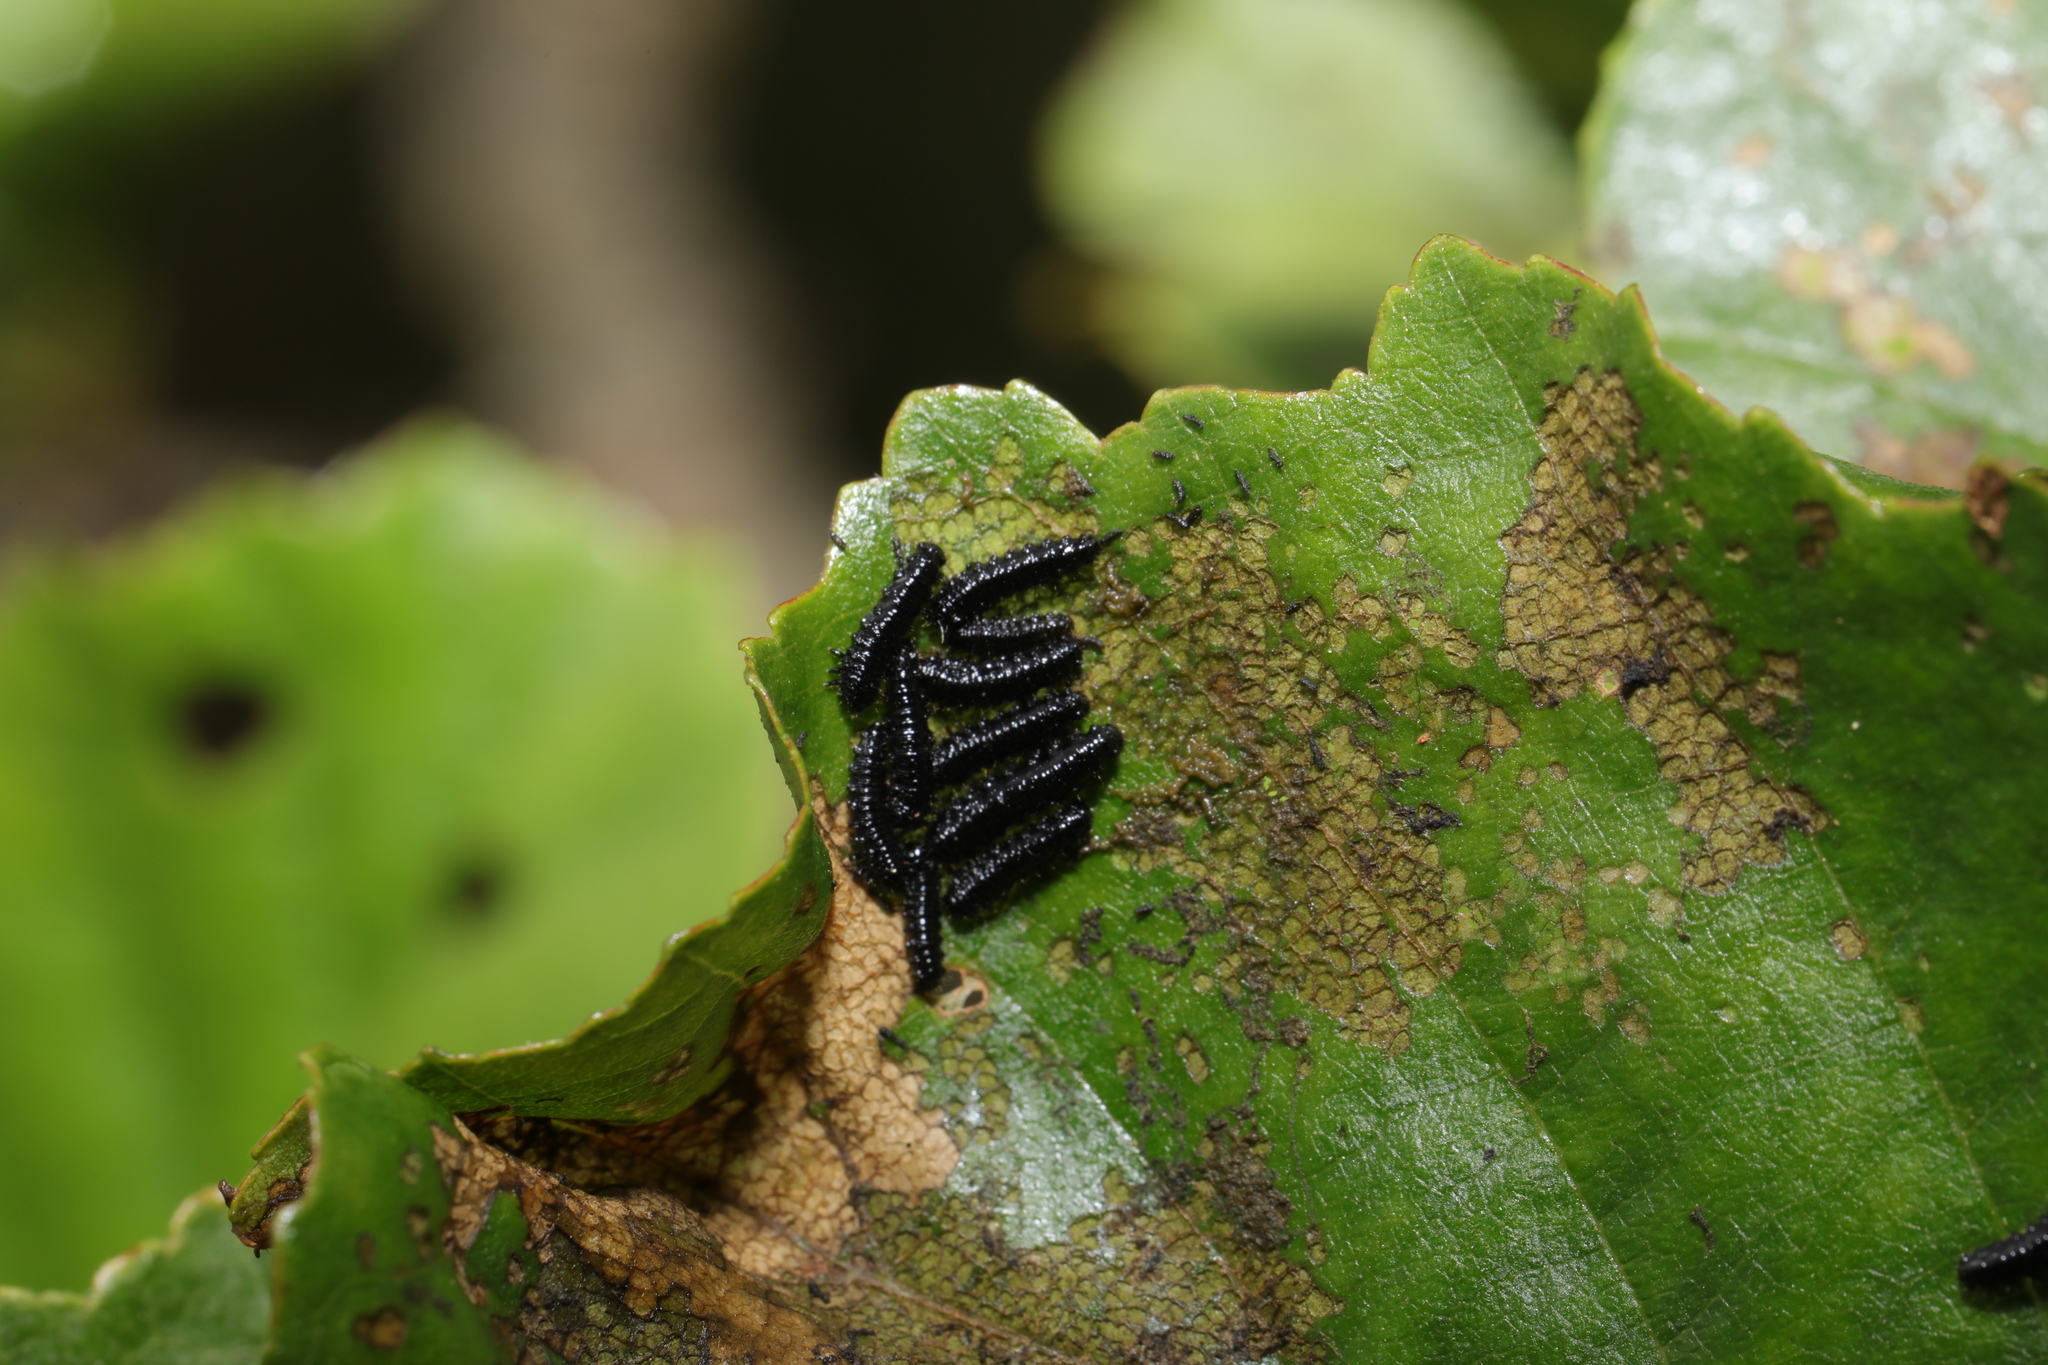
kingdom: Animalia
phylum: Arthropoda
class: Insecta
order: Coleoptera
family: Chrysomelidae
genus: Agelastica
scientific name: Agelastica alni
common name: Alder leaf beetle
